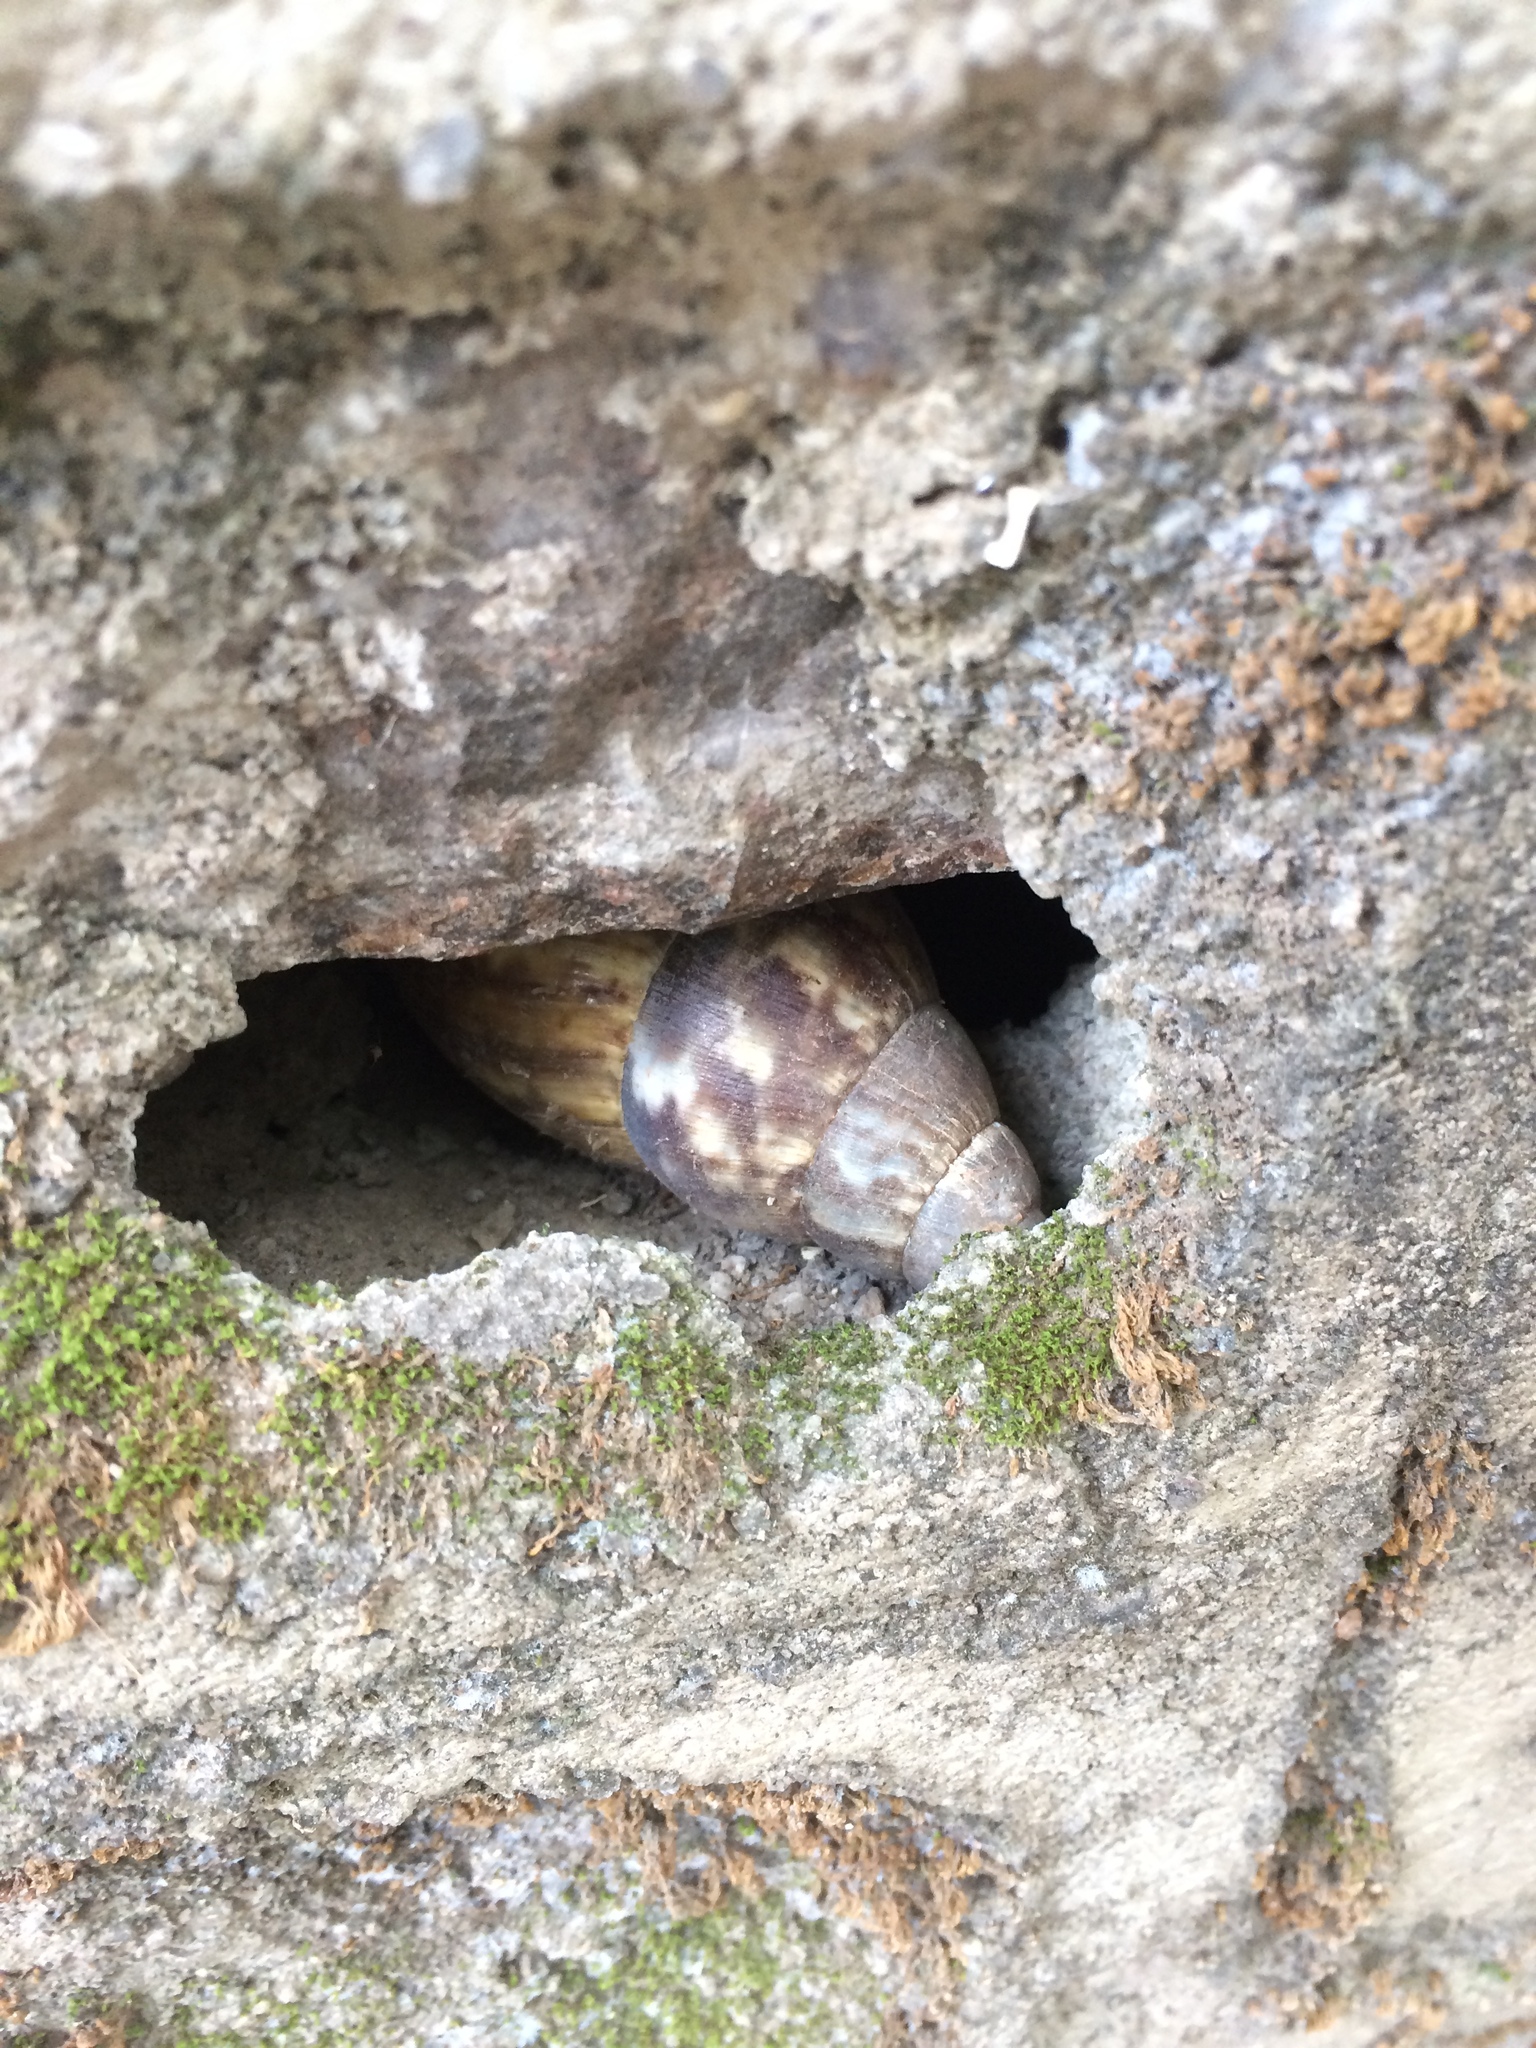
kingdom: Animalia
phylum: Mollusca
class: Gastropoda
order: Stylommatophora
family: Achatinidae
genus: Lissachatina
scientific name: Lissachatina fulica
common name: Giant african snail
